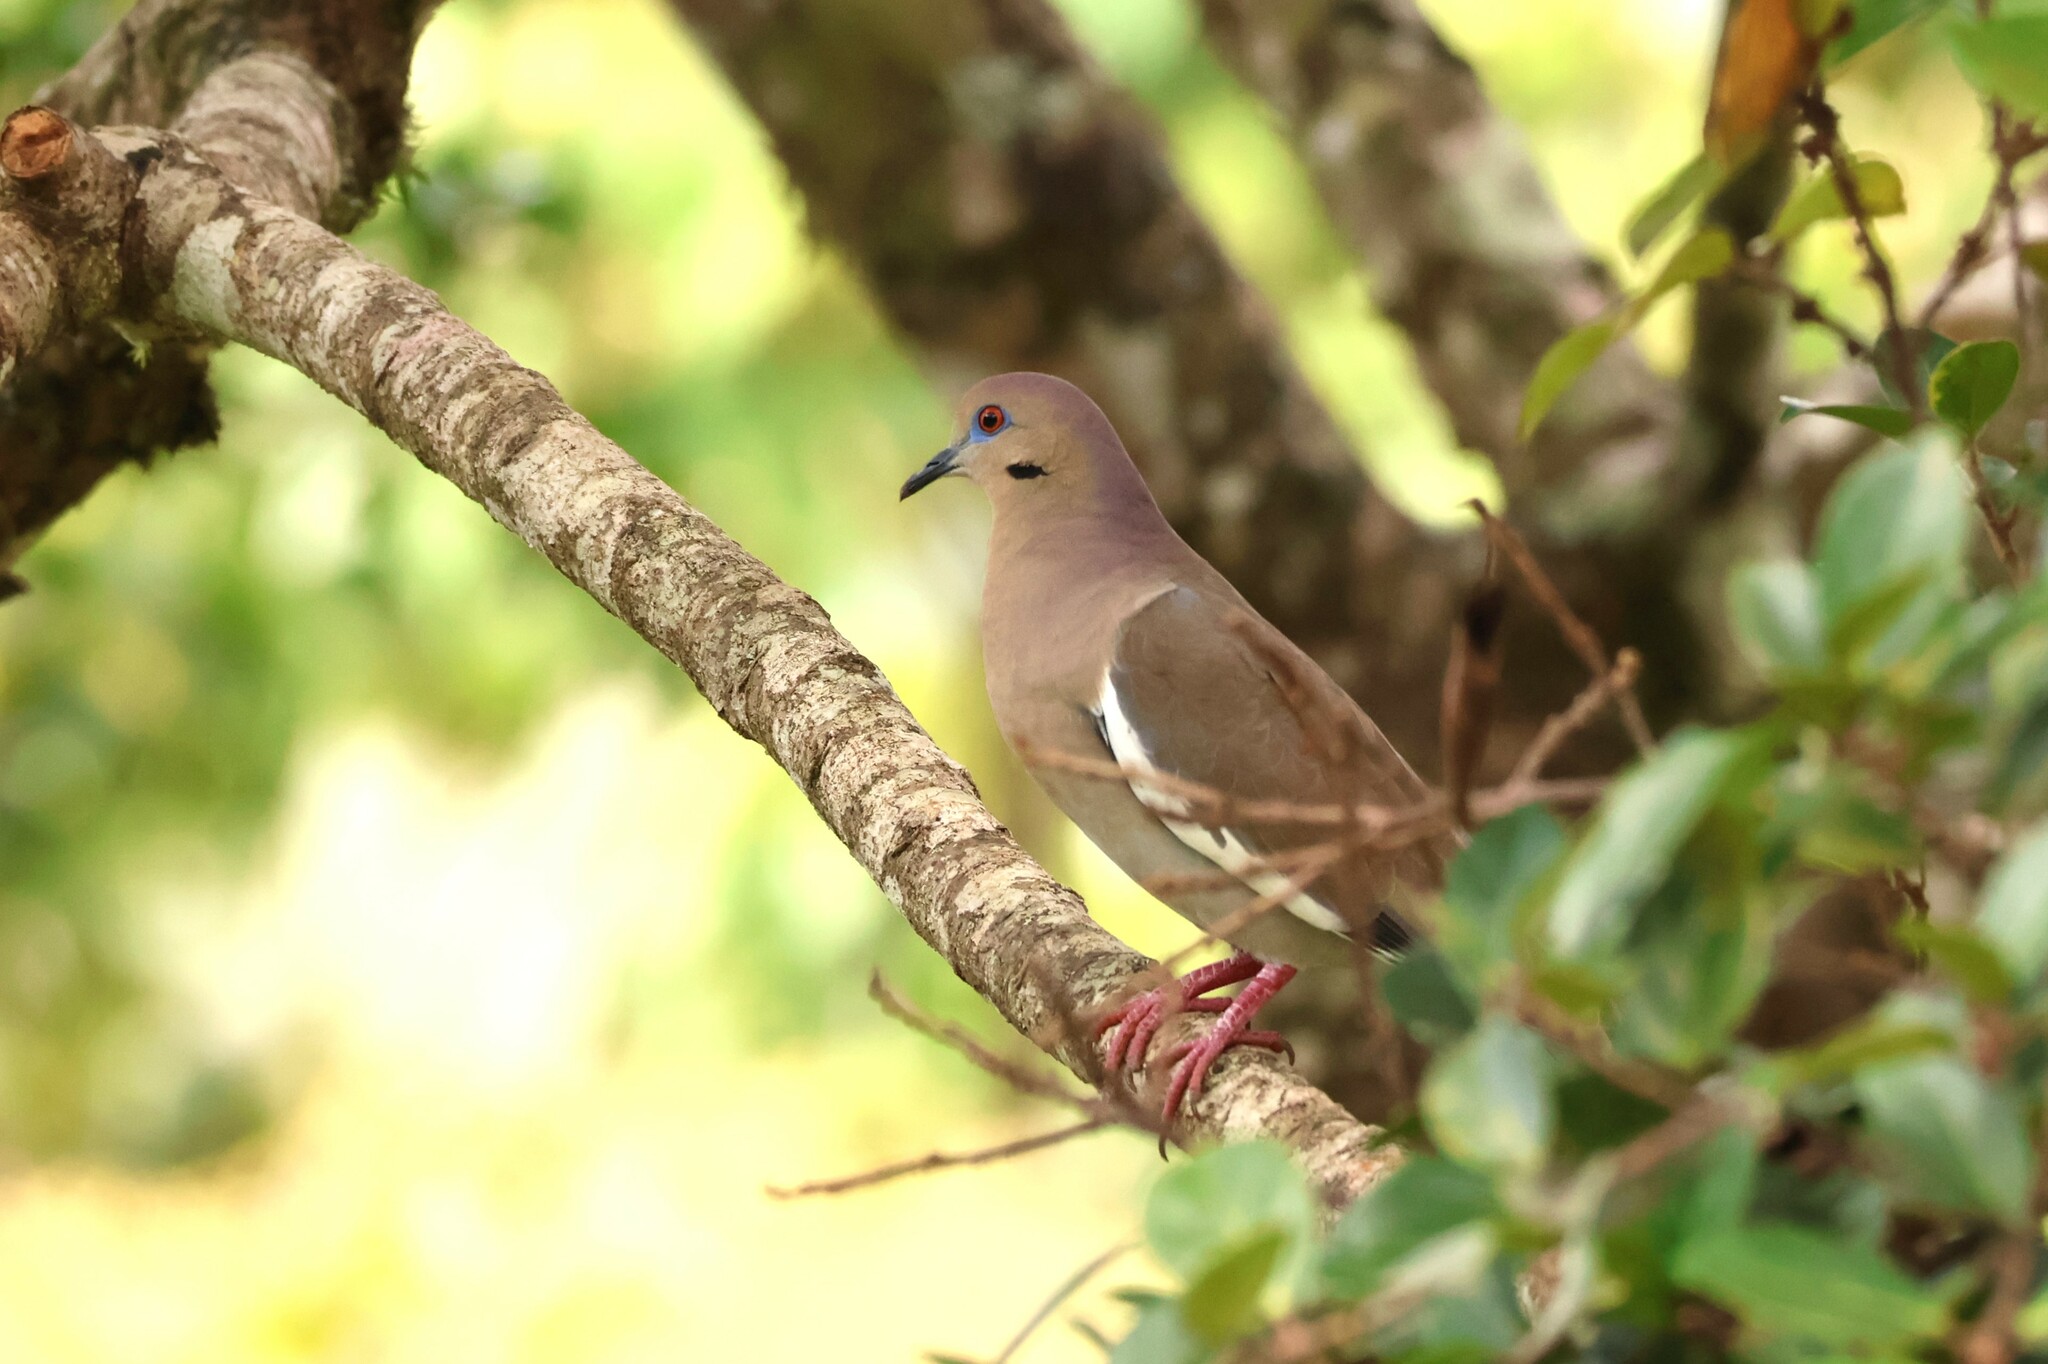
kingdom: Animalia
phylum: Chordata
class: Aves
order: Columbiformes
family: Columbidae
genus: Zenaida
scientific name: Zenaida asiatica
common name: White-winged dove
